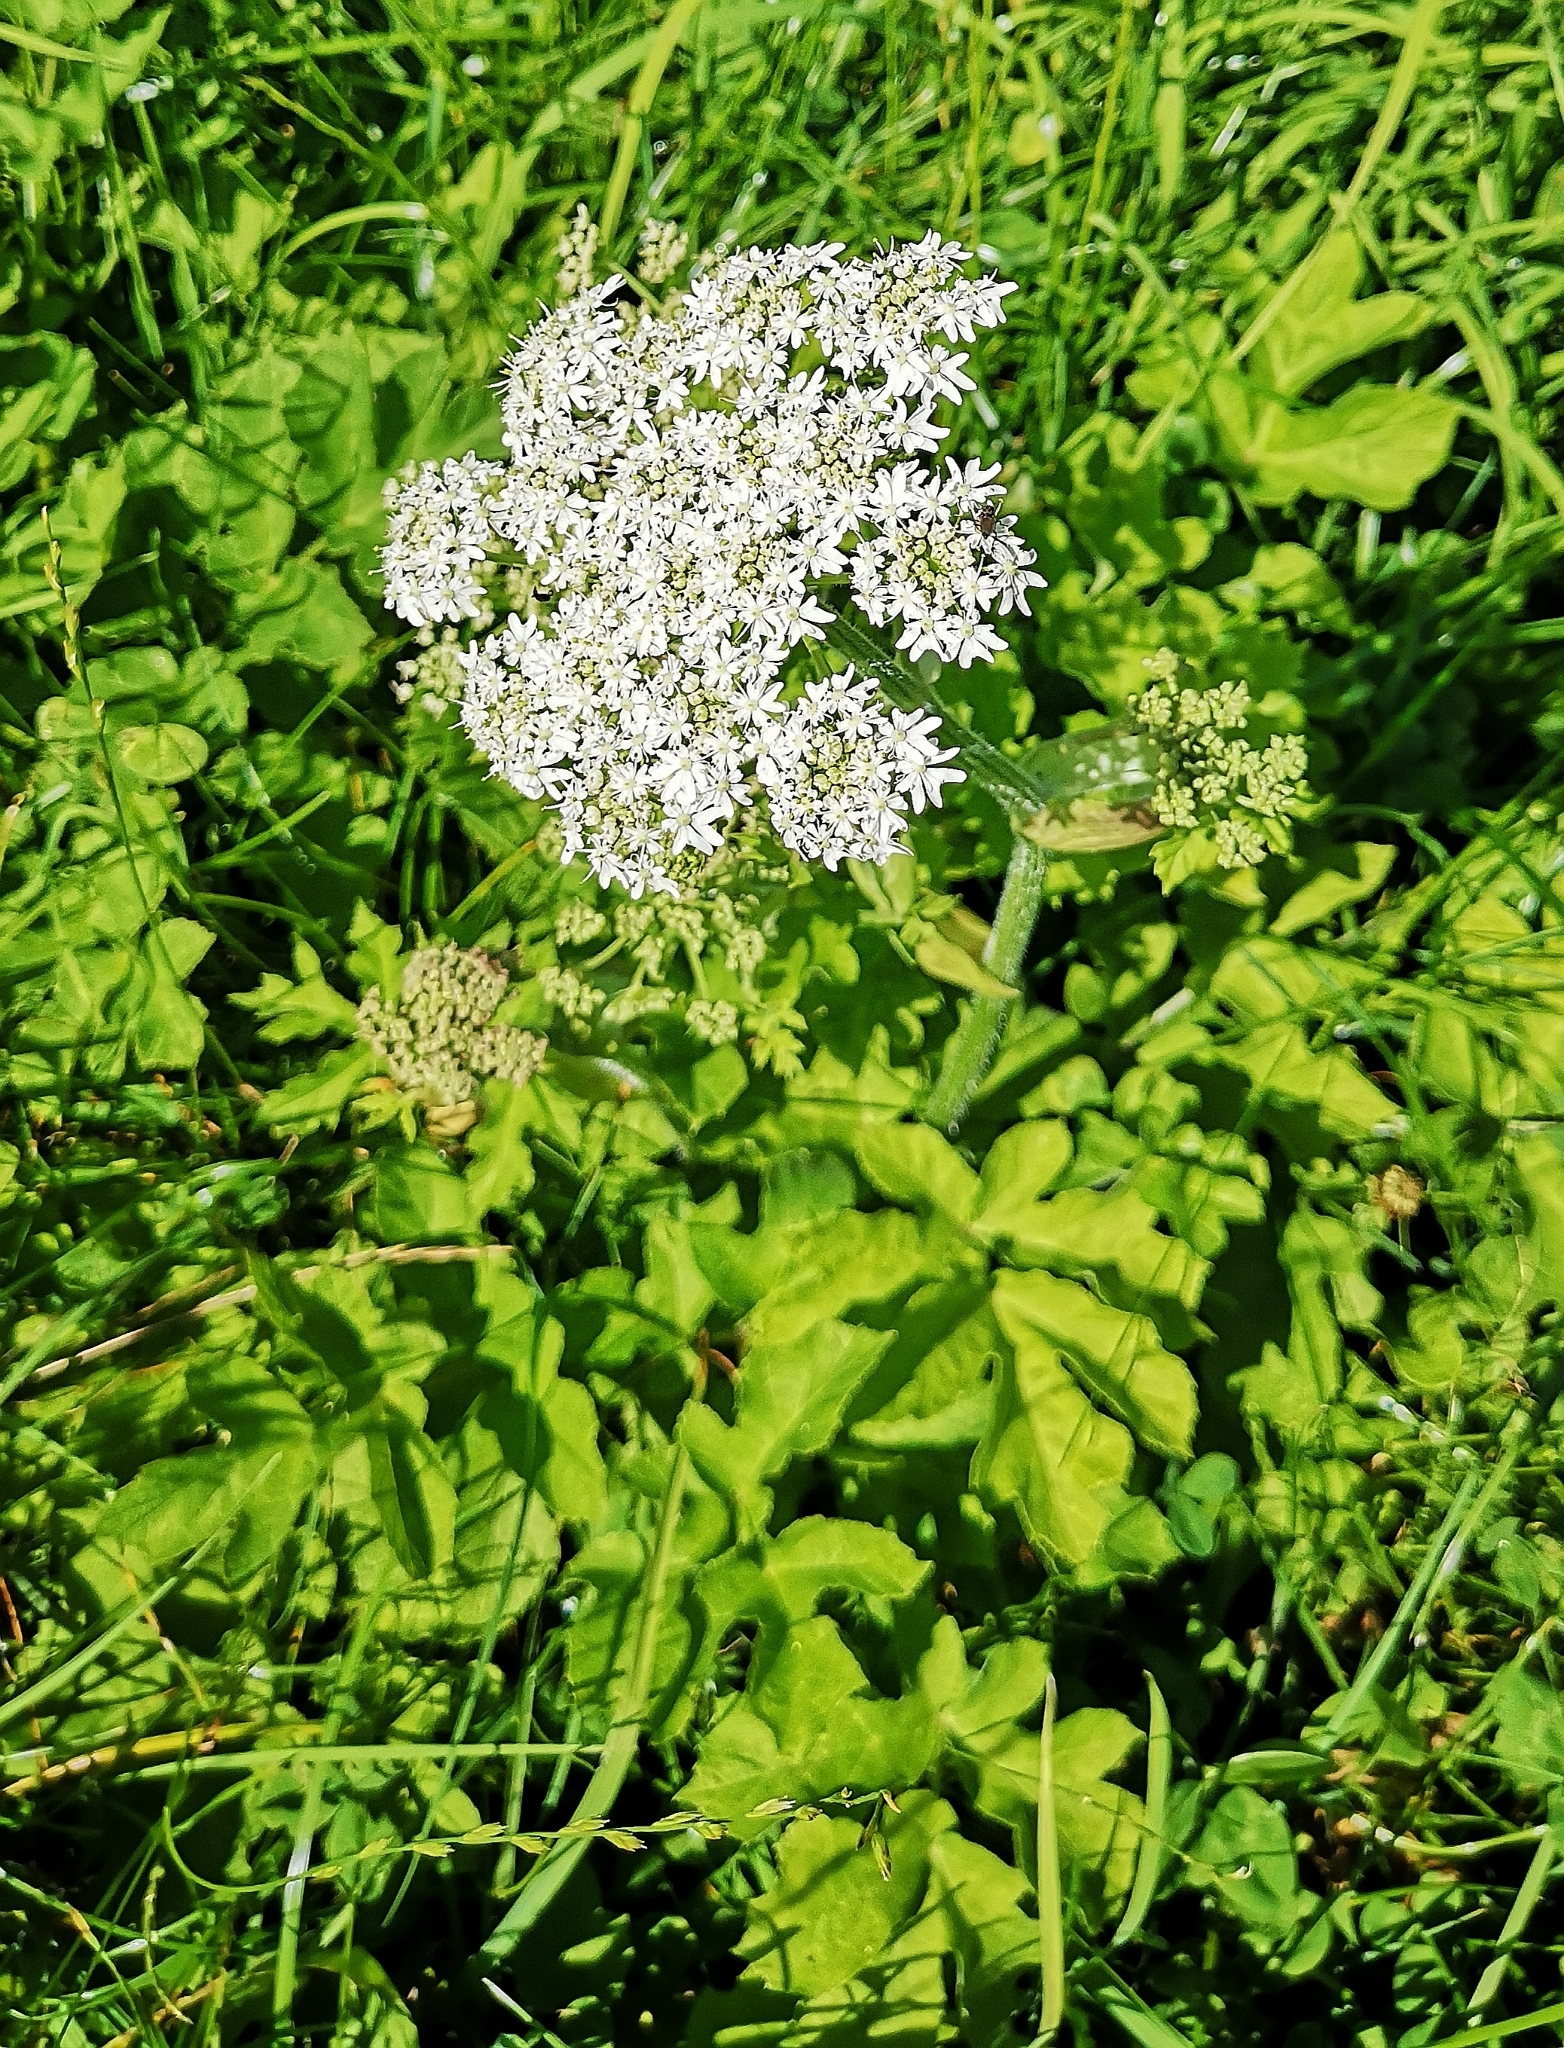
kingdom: Plantae
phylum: Tracheophyta
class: Magnoliopsida
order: Apiales
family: Apiaceae
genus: Heracleum
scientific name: Heracleum sphondylium
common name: Hogweed
